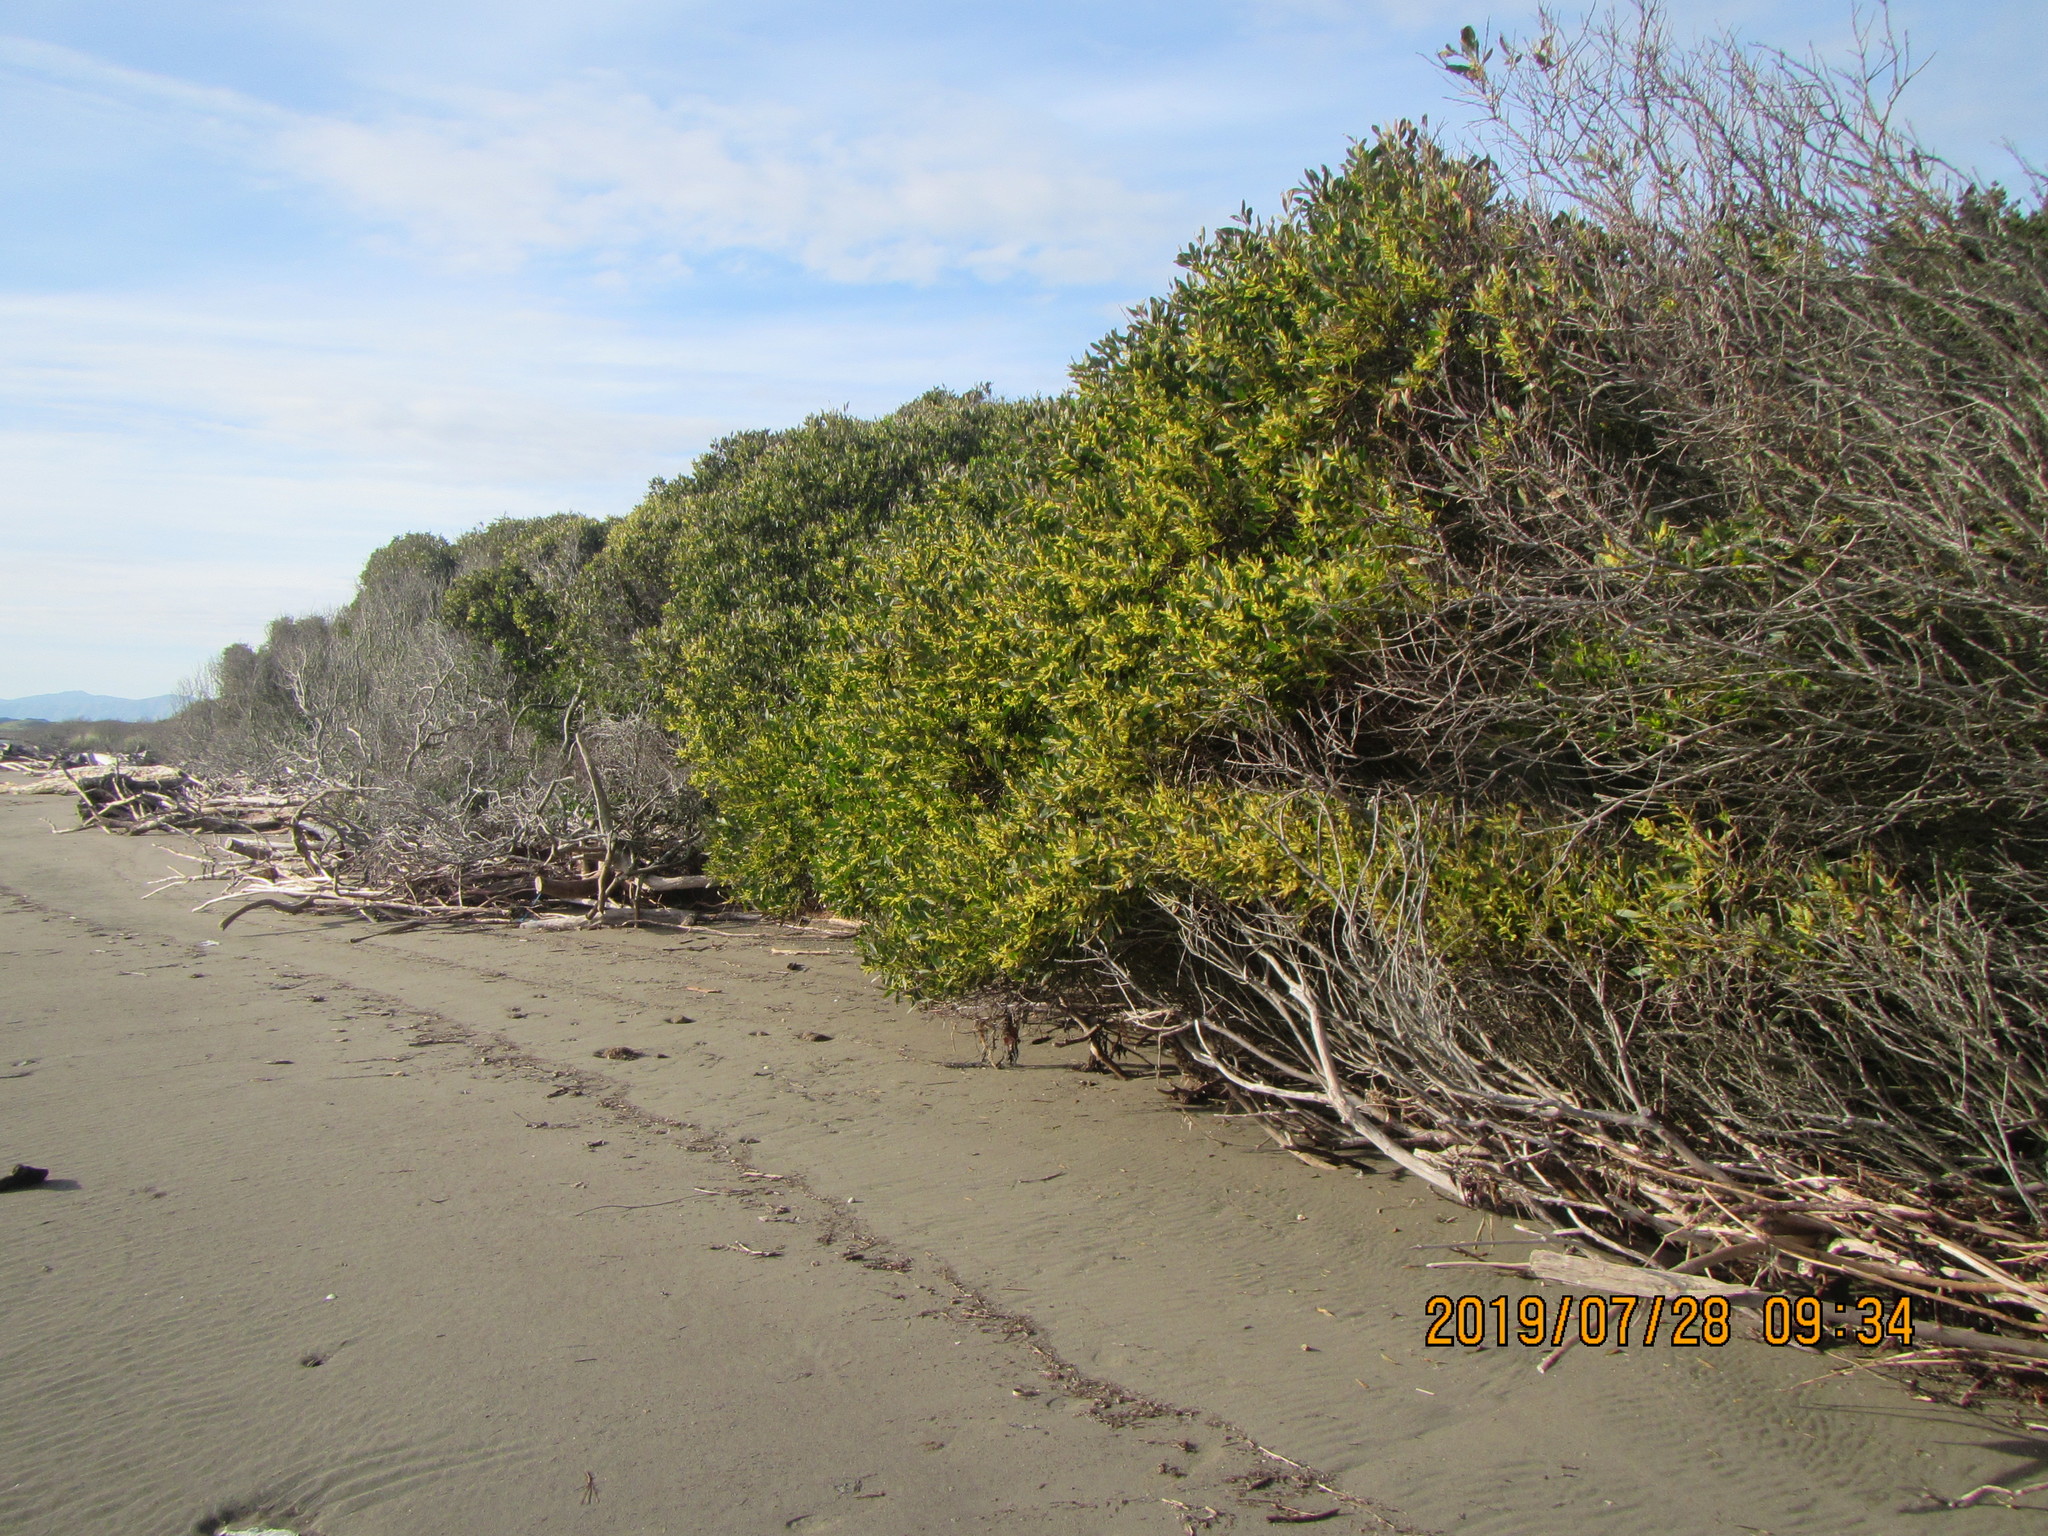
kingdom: Plantae
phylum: Tracheophyta
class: Magnoliopsida
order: Fabales
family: Fabaceae
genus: Acacia
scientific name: Acacia longifolia
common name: Sydney golden wattle
